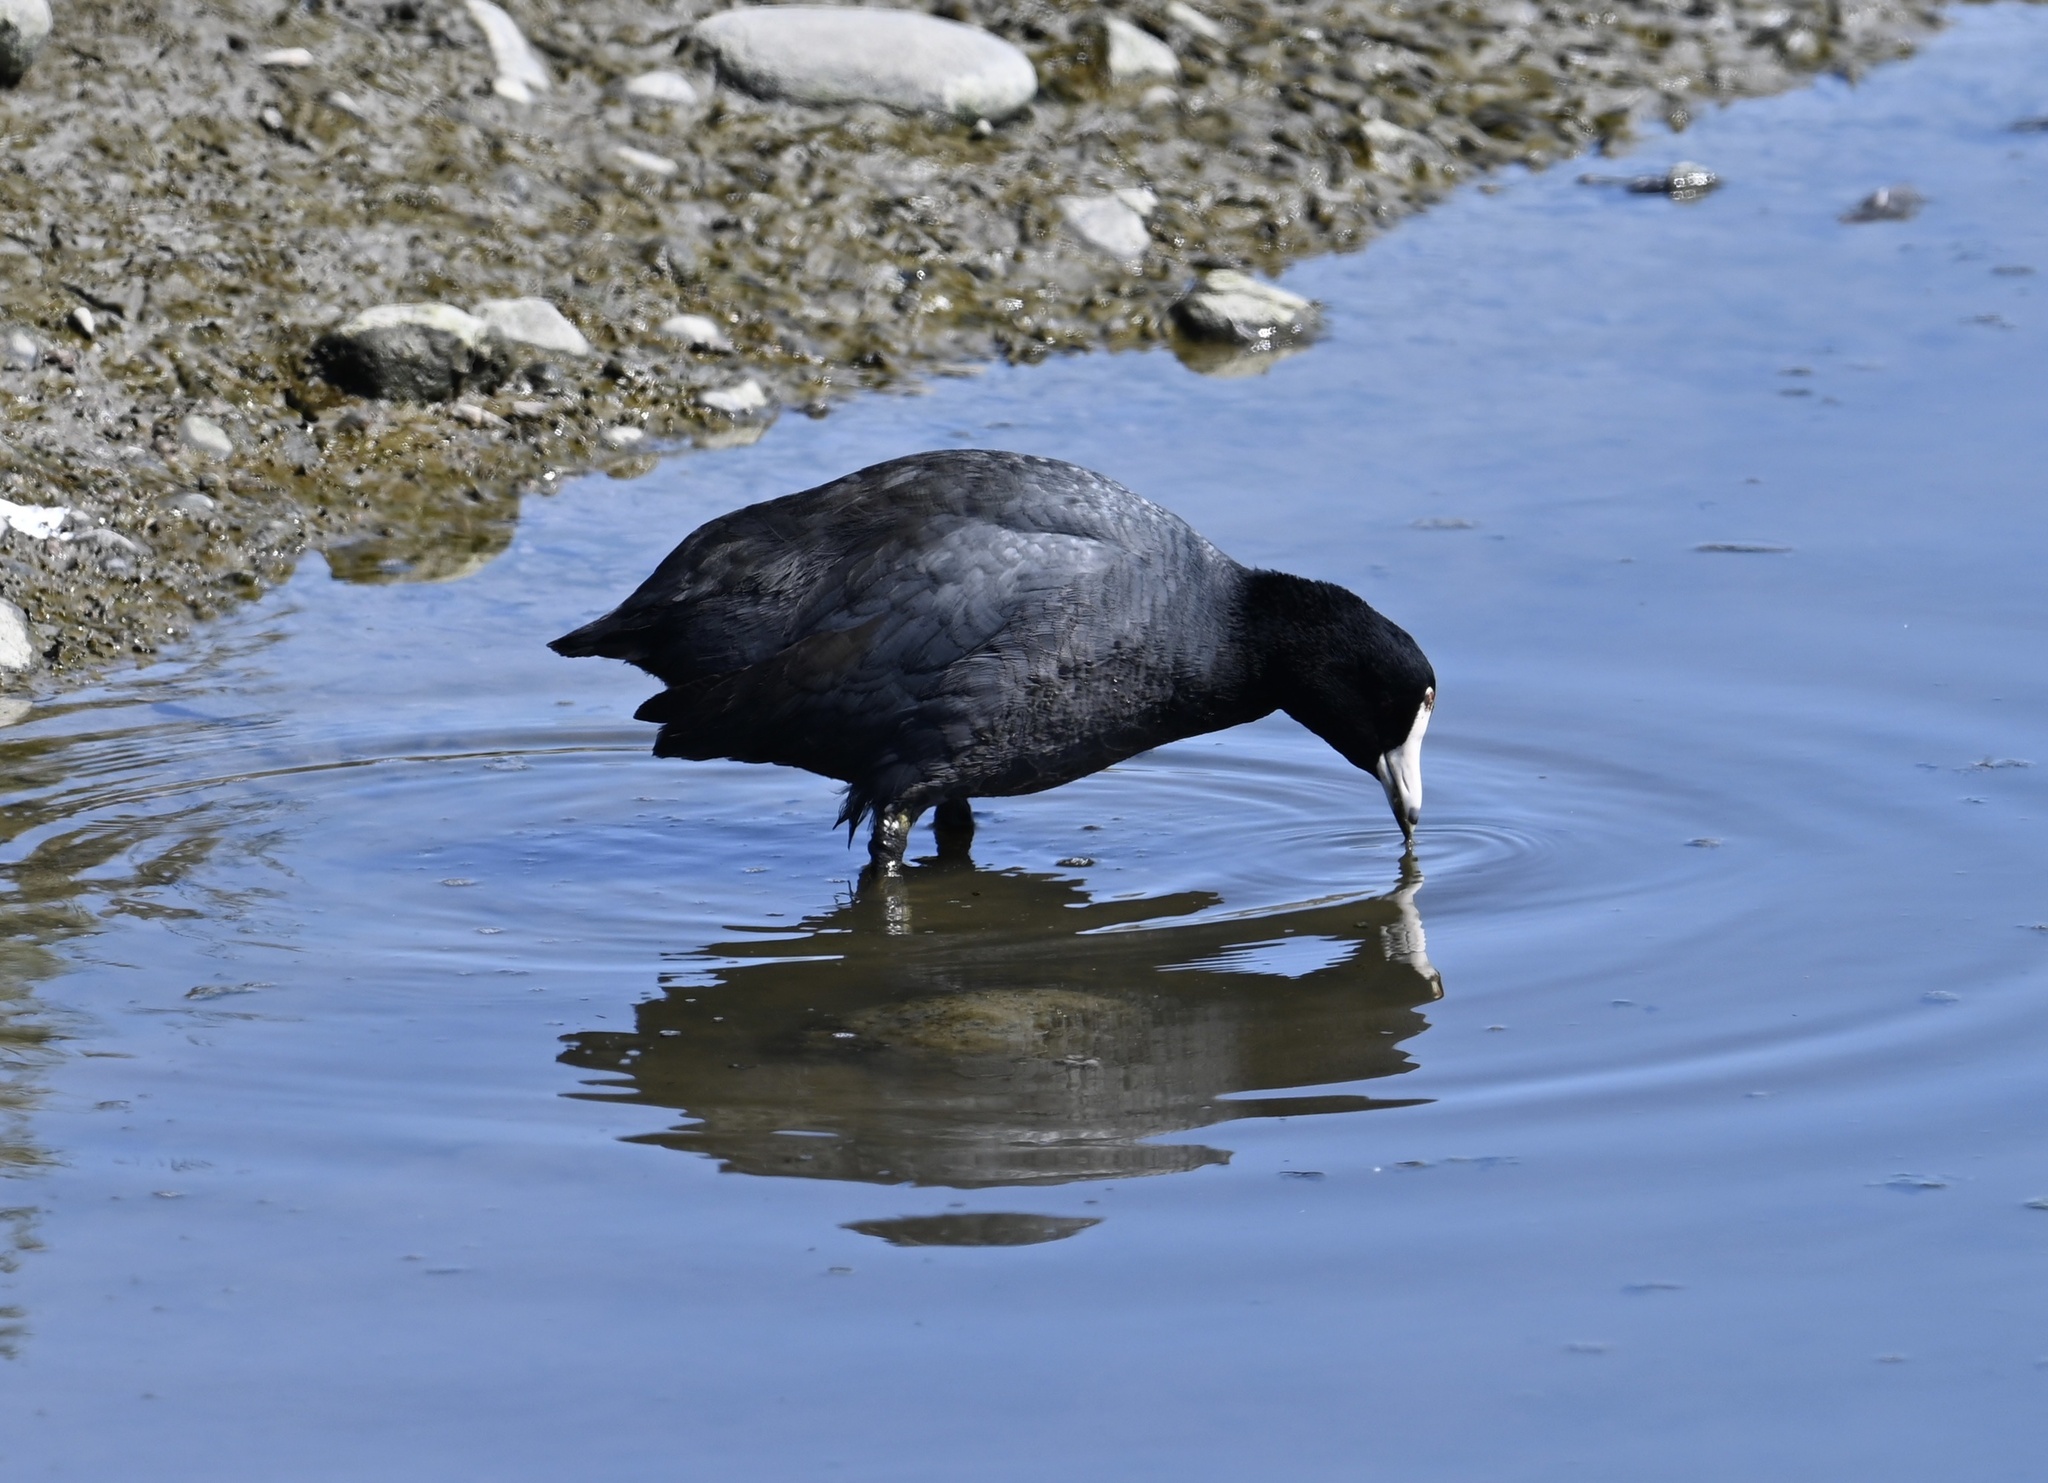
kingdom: Animalia
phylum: Chordata
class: Aves
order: Gruiformes
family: Rallidae
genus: Fulica
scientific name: Fulica americana
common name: American coot
